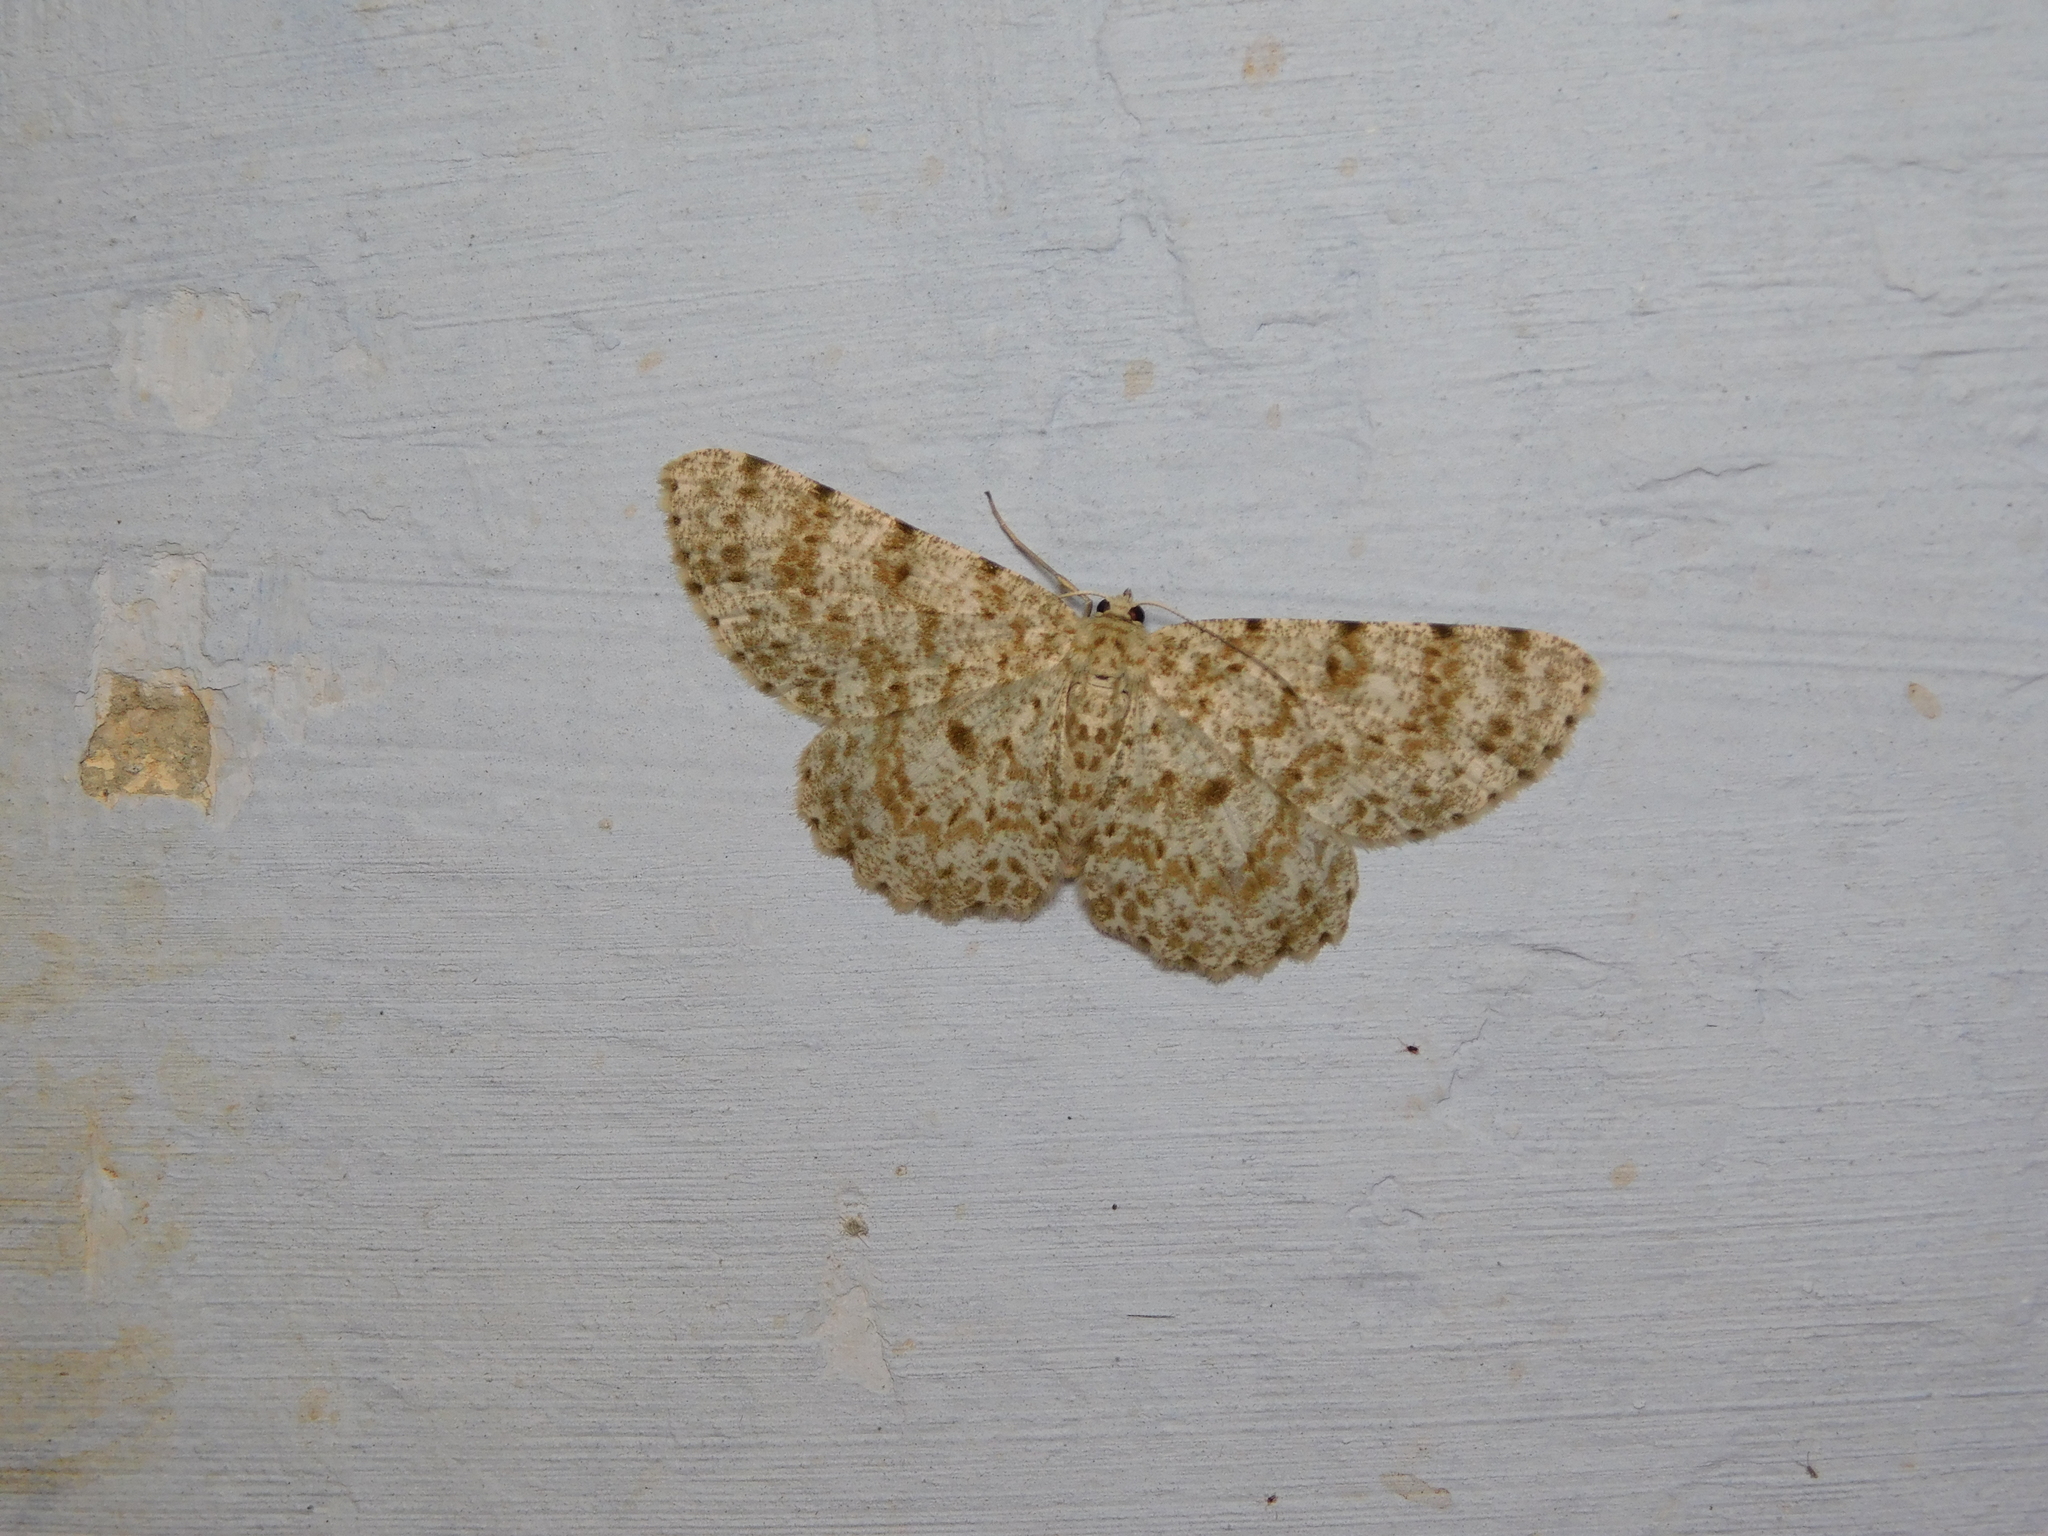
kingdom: Animalia
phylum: Arthropoda
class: Insecta
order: Lepidoptera
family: Geometridae
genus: Catoria
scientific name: Catoria sublavaria
